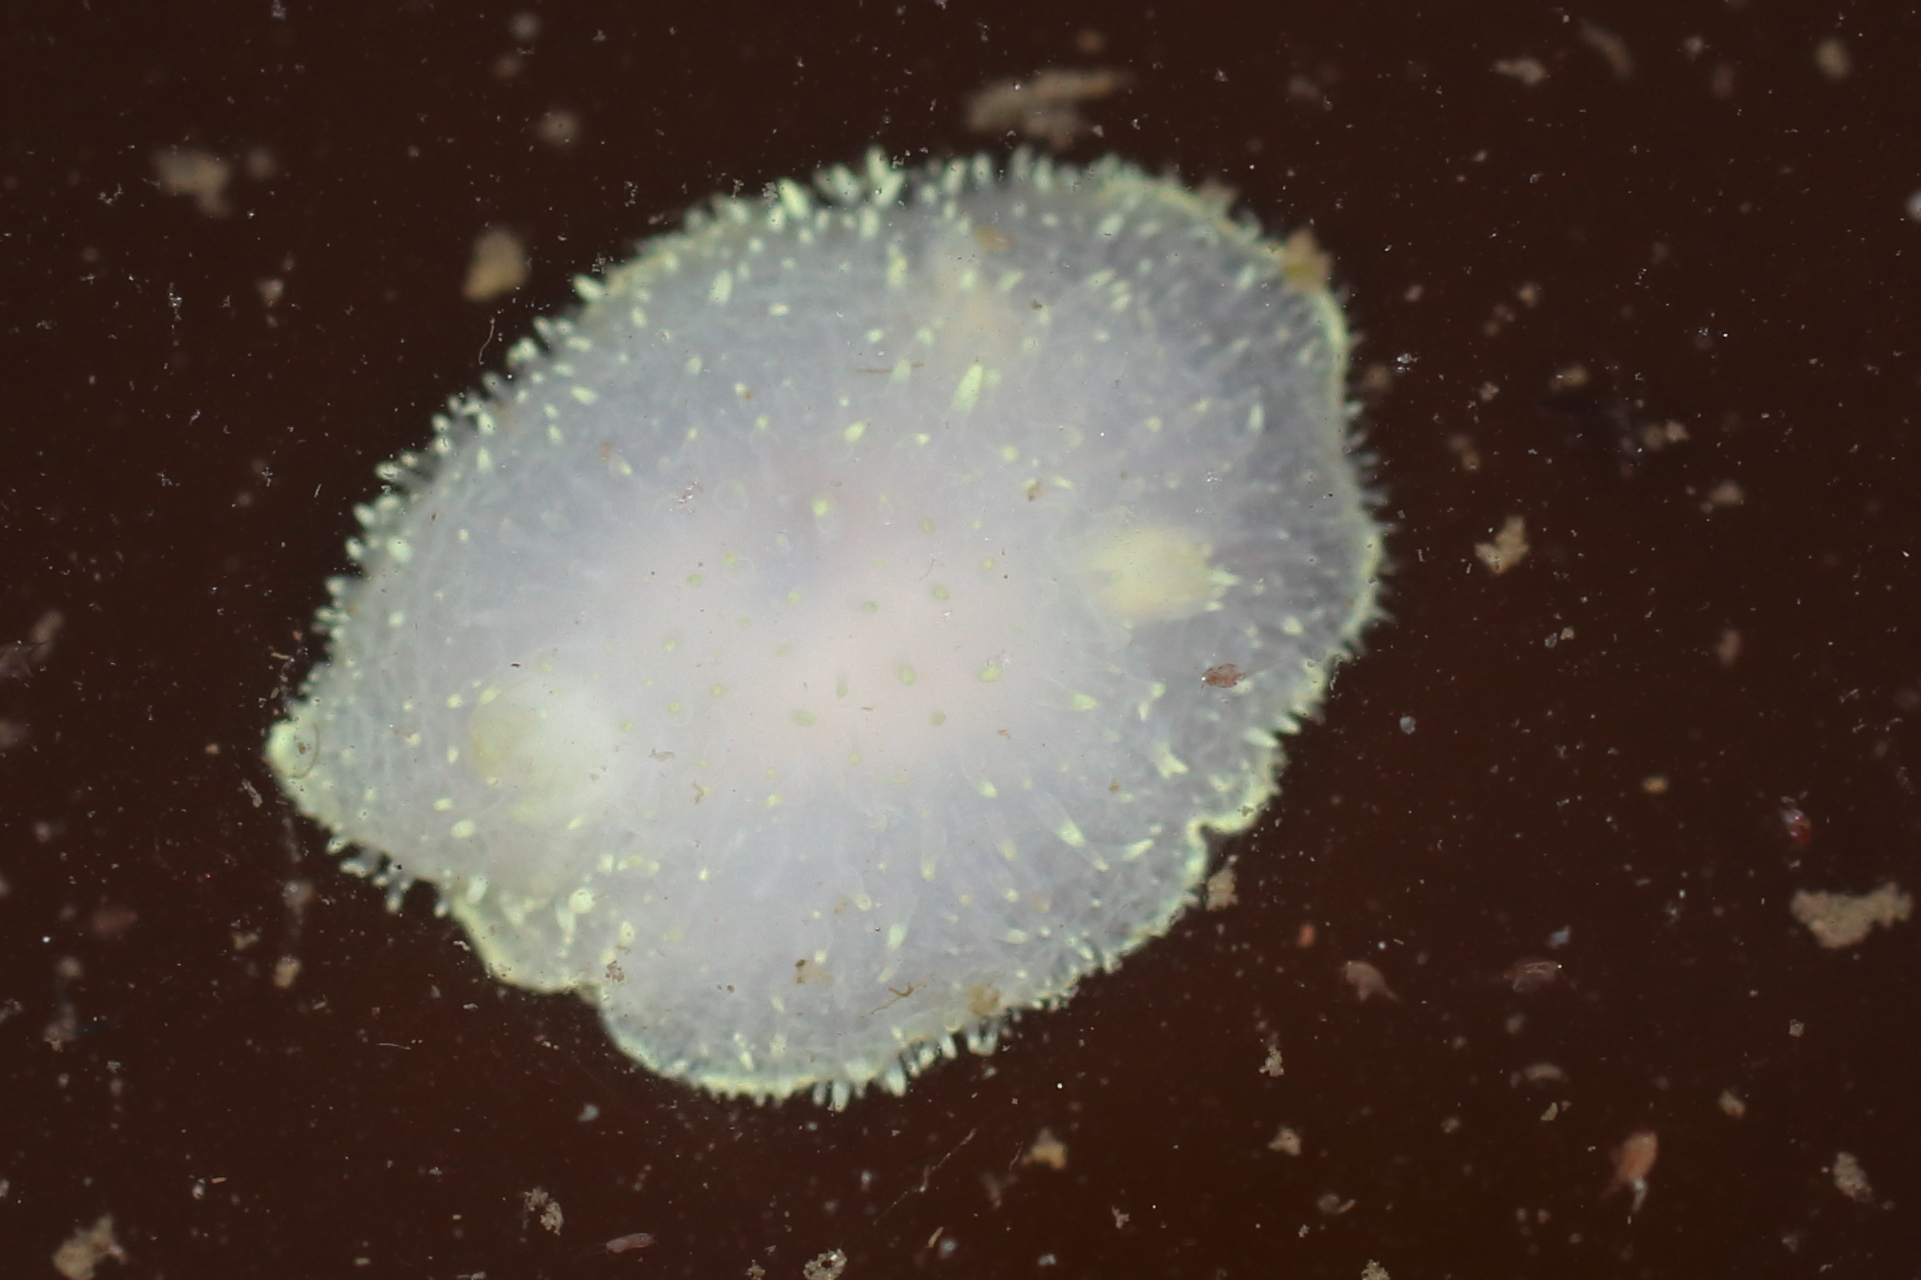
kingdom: Animalia
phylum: Mollusca
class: Gastropoda
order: Nudibranchia
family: Onchidorididae
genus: Acanthodoris
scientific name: Acanthodoris hudsoni
